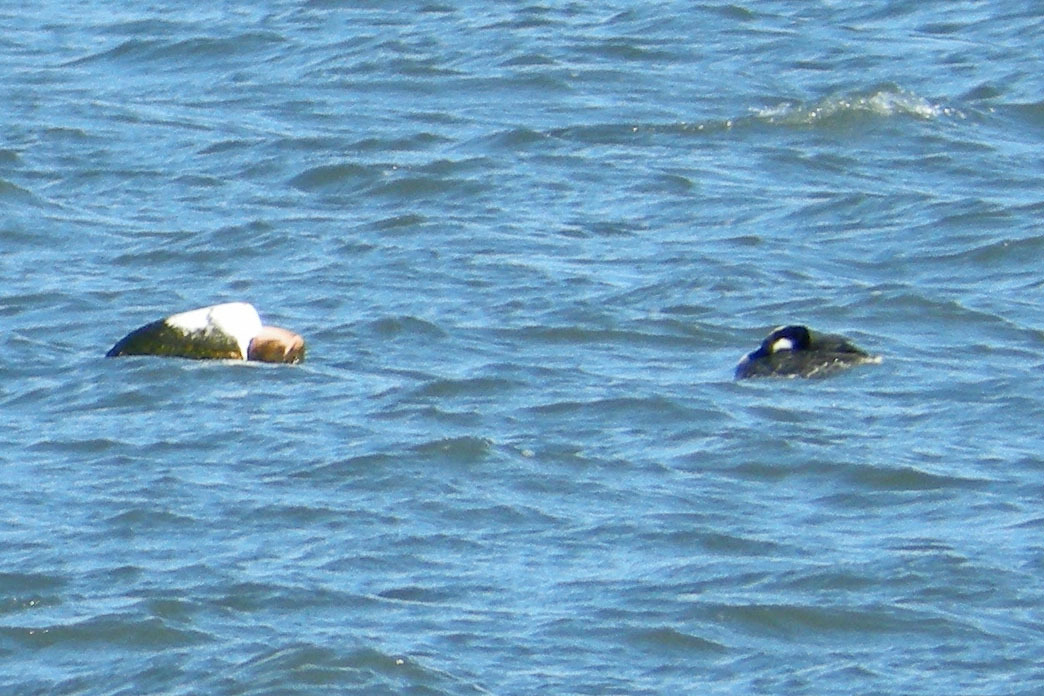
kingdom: Animalia
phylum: Chordata
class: Aves
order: Podicipediformes
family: Podicipedidae
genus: Aechmophorus
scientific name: Aechmophorus occidentalis
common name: Western grebe
